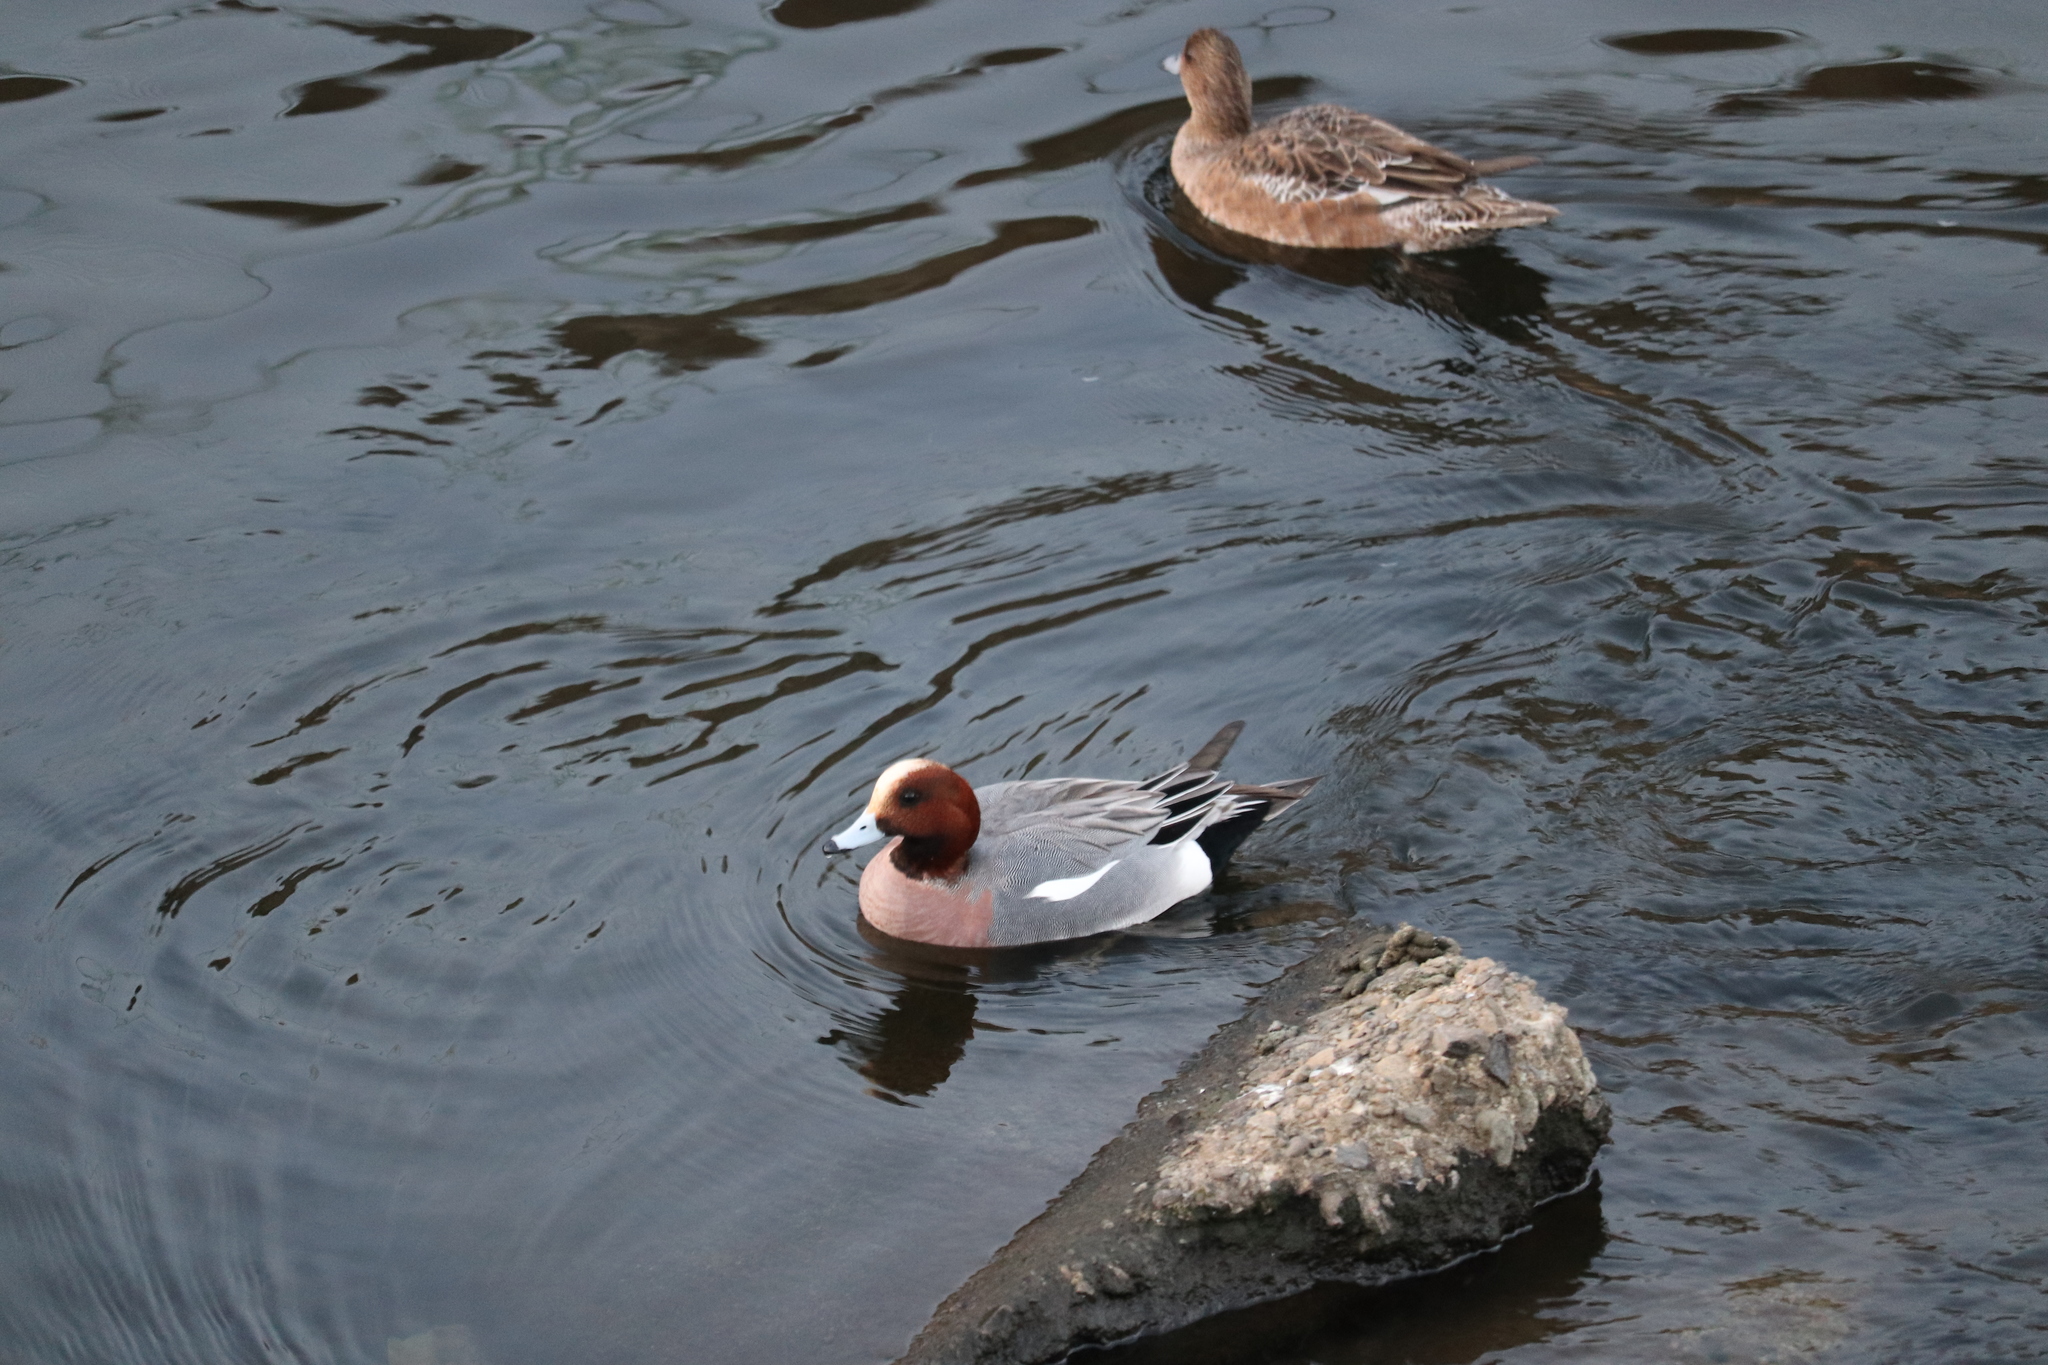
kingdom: Animalia
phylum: Chordata
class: Aves
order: Anseriformes
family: Anatidae
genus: Mareca
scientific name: Mareca penelope
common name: Eurasian wigeon
